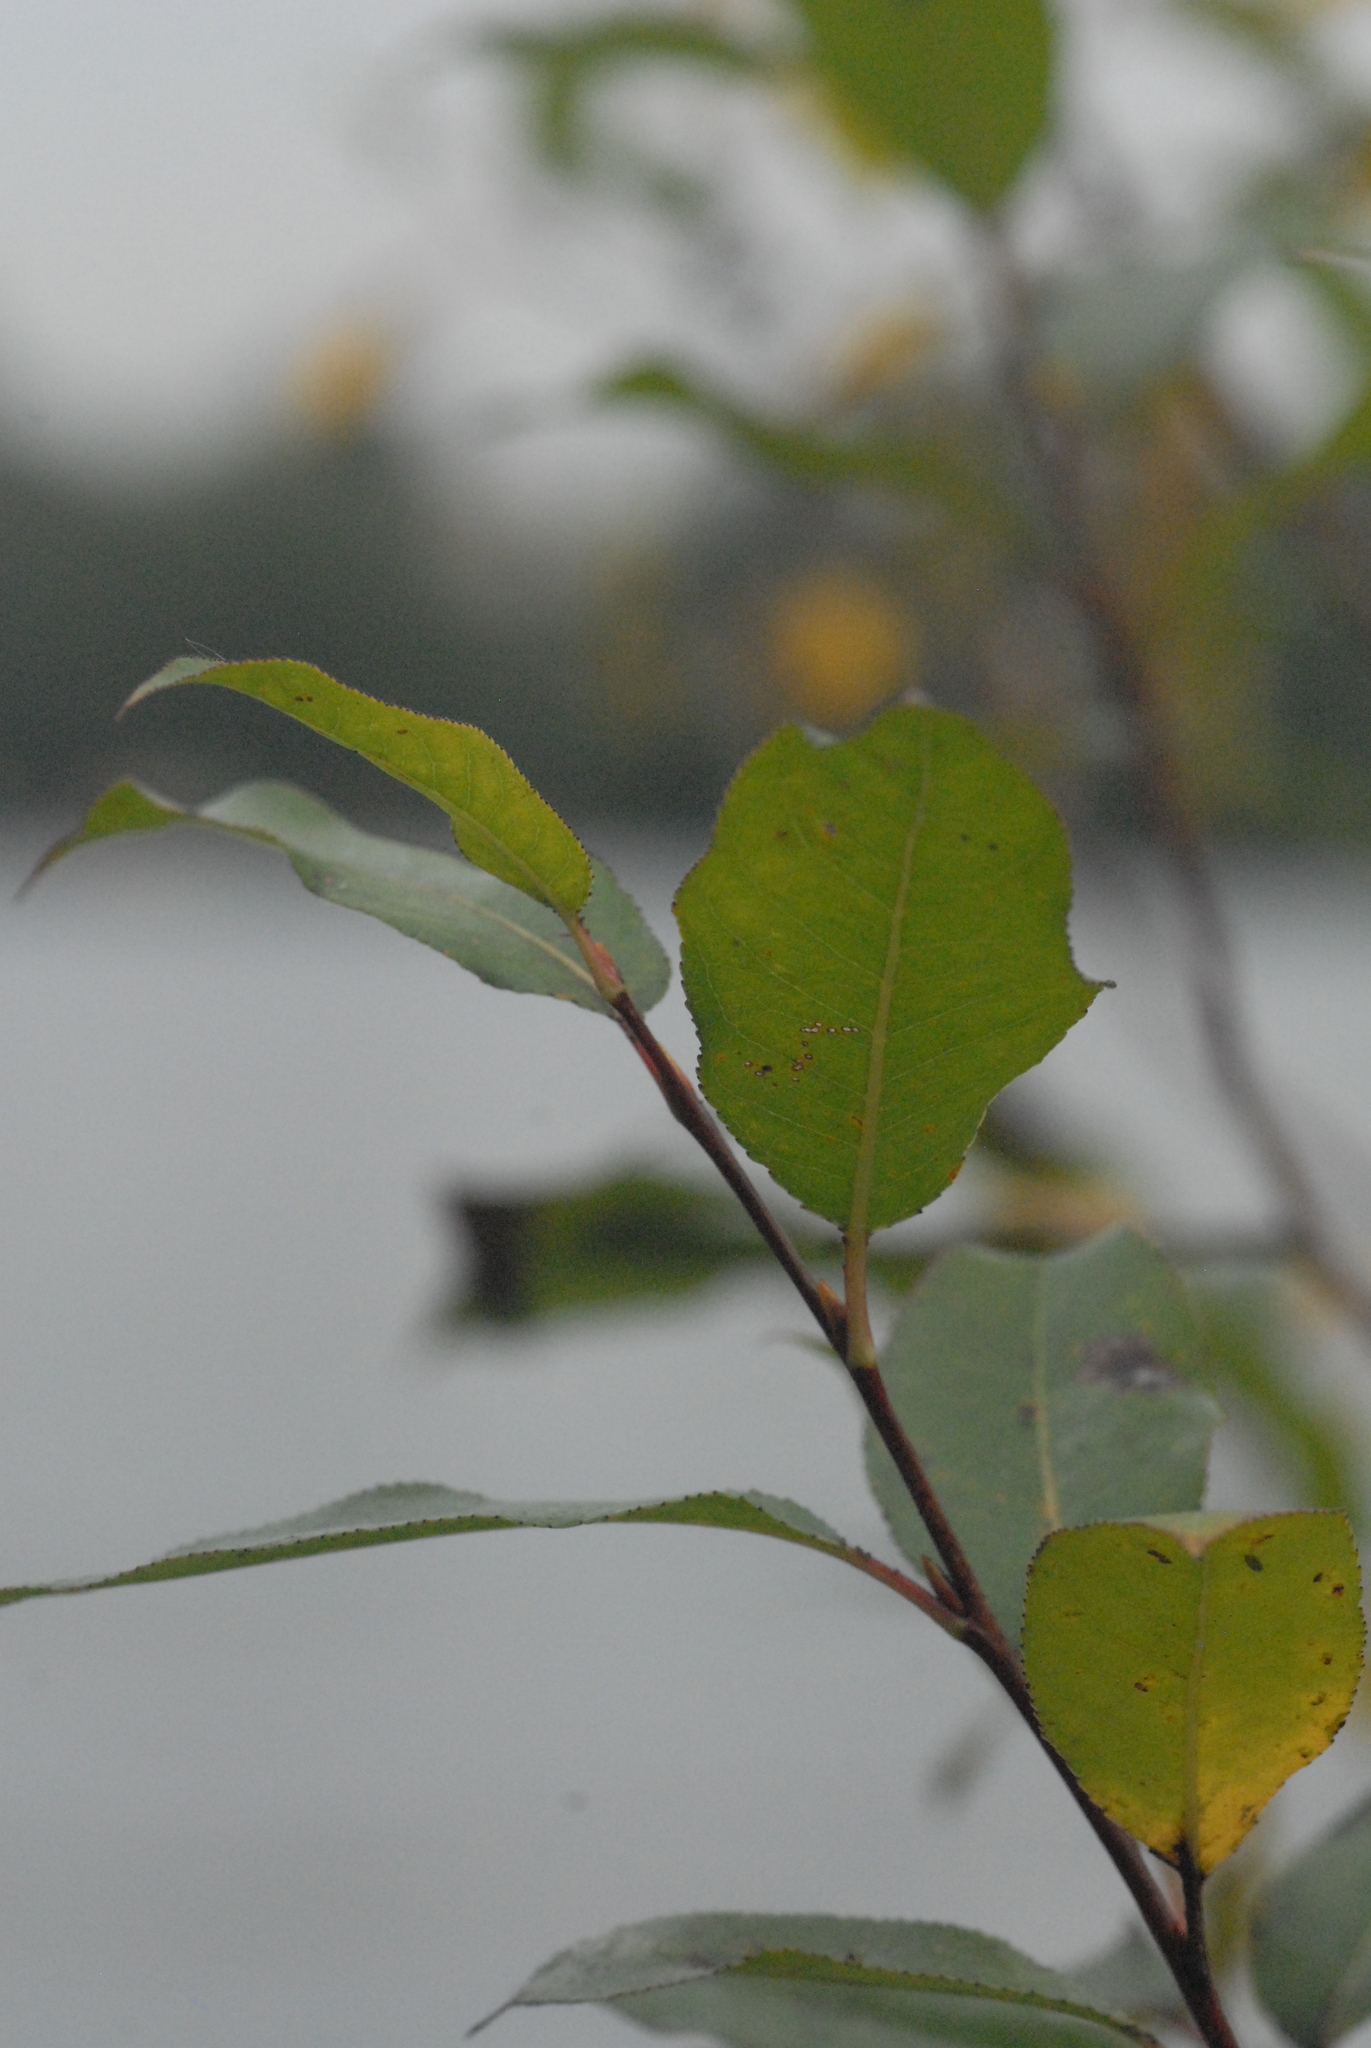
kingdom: Plantae
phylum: Tracheophyta
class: Magnoliopsida
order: Malpighiales
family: Salicaceae
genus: Salix
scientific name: Salix pentandra
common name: Bay willow
